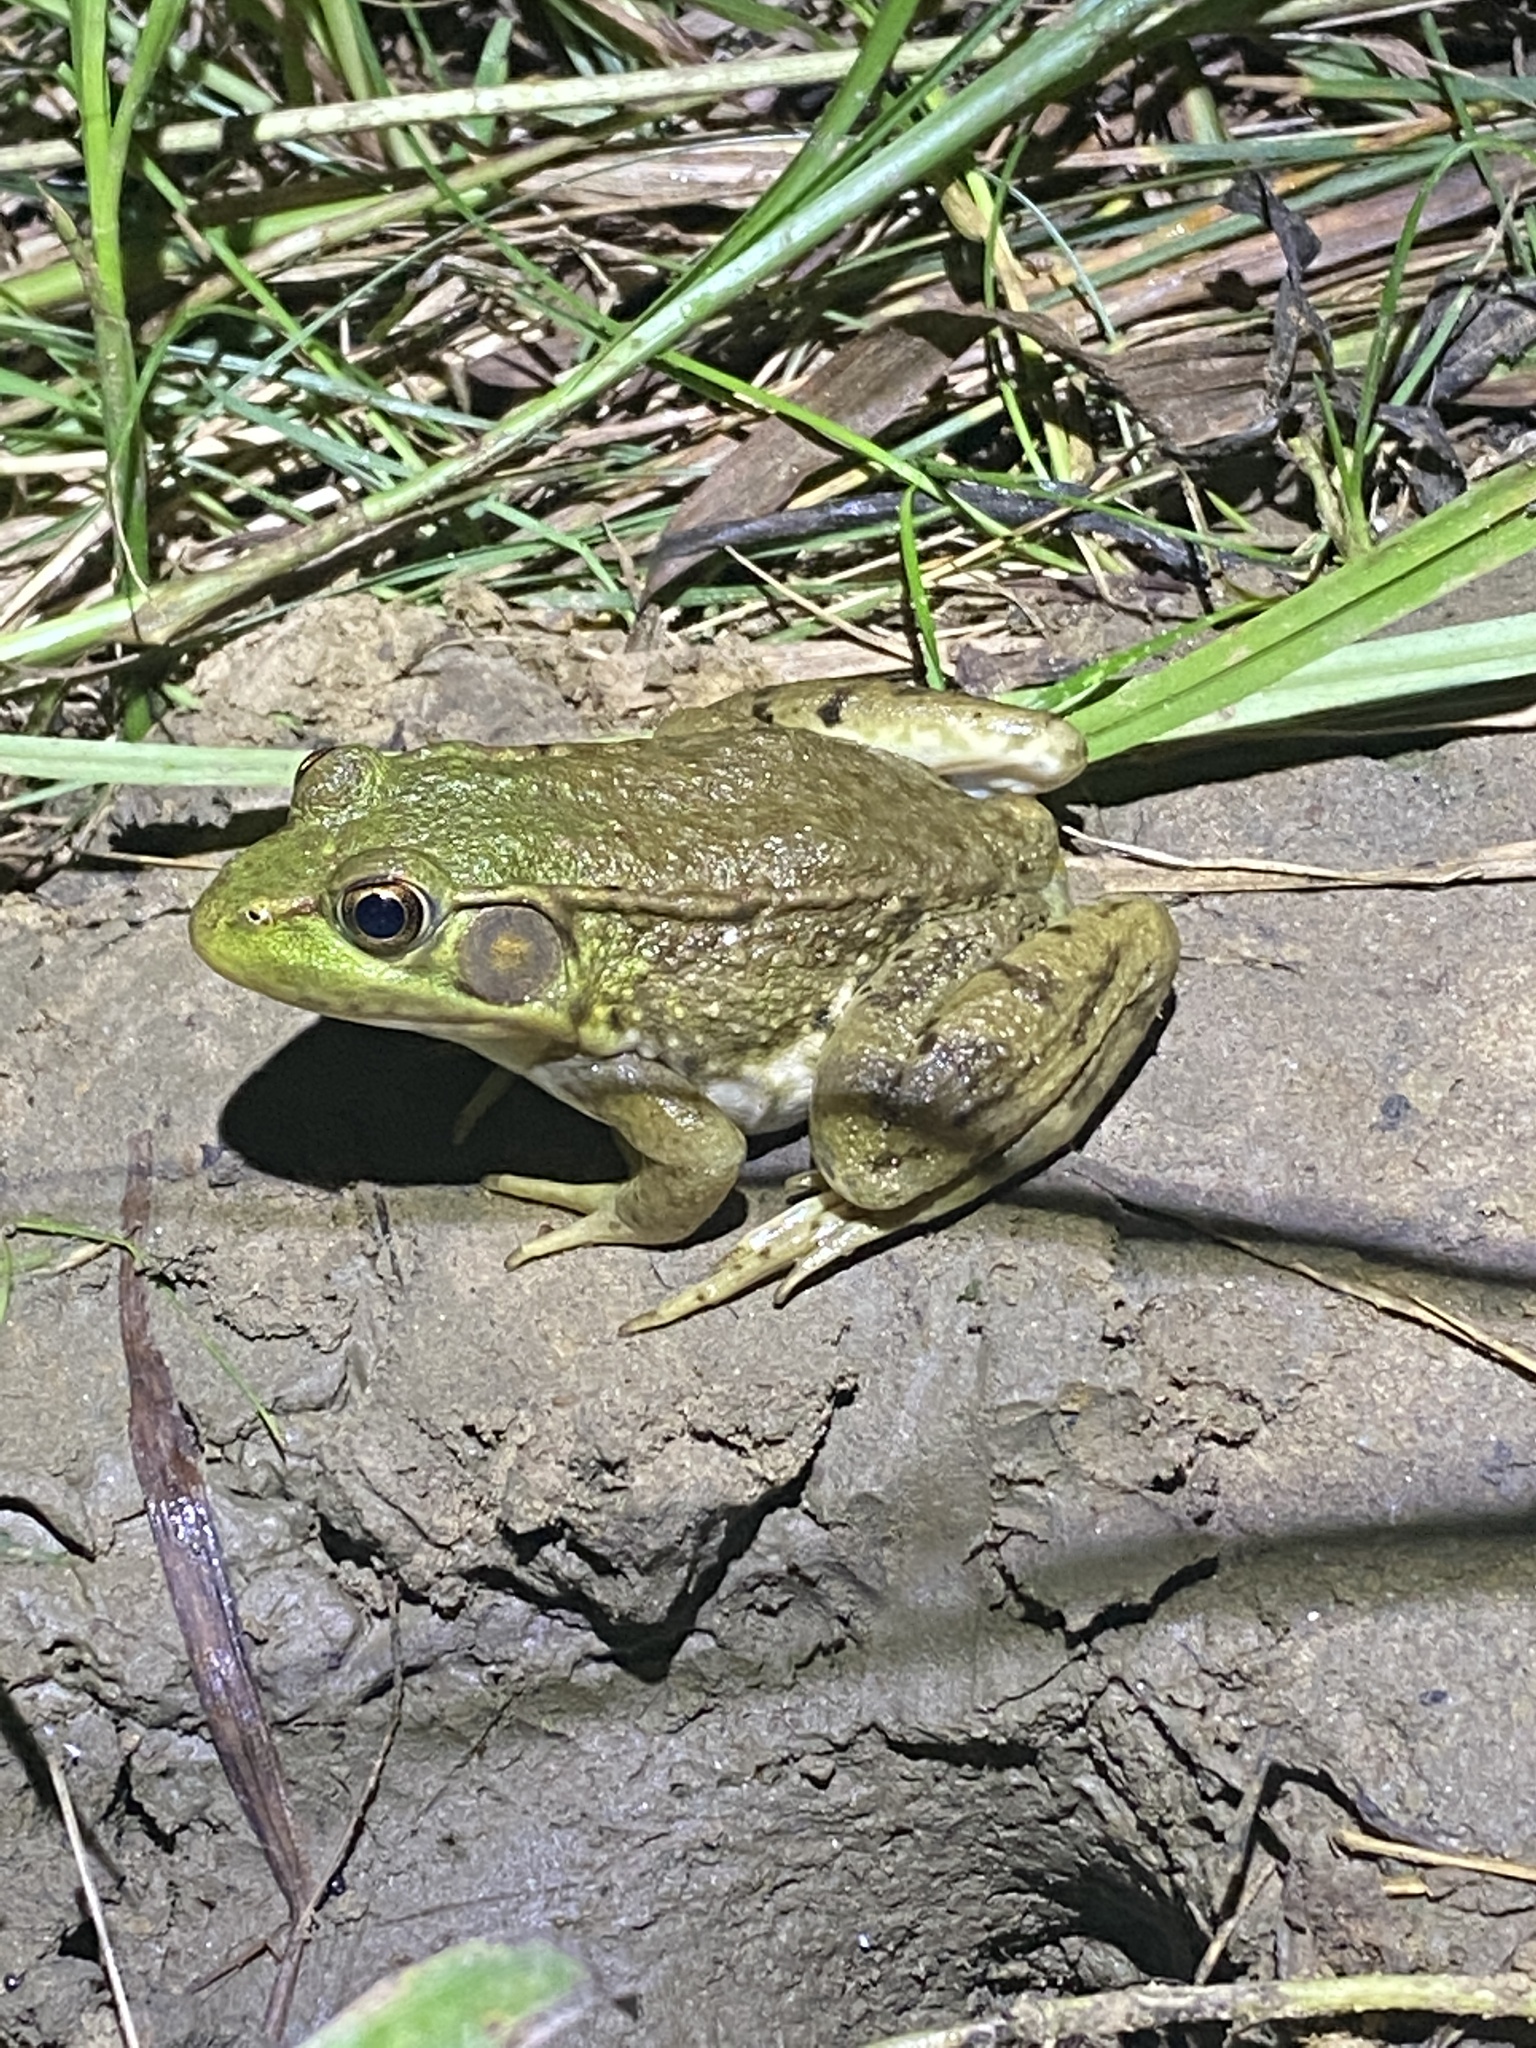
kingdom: Animalia
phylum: Chordata
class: Amphibia
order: Anura
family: Ranidae
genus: Lithobates
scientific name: Lithobates clamitans
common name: Green frog
